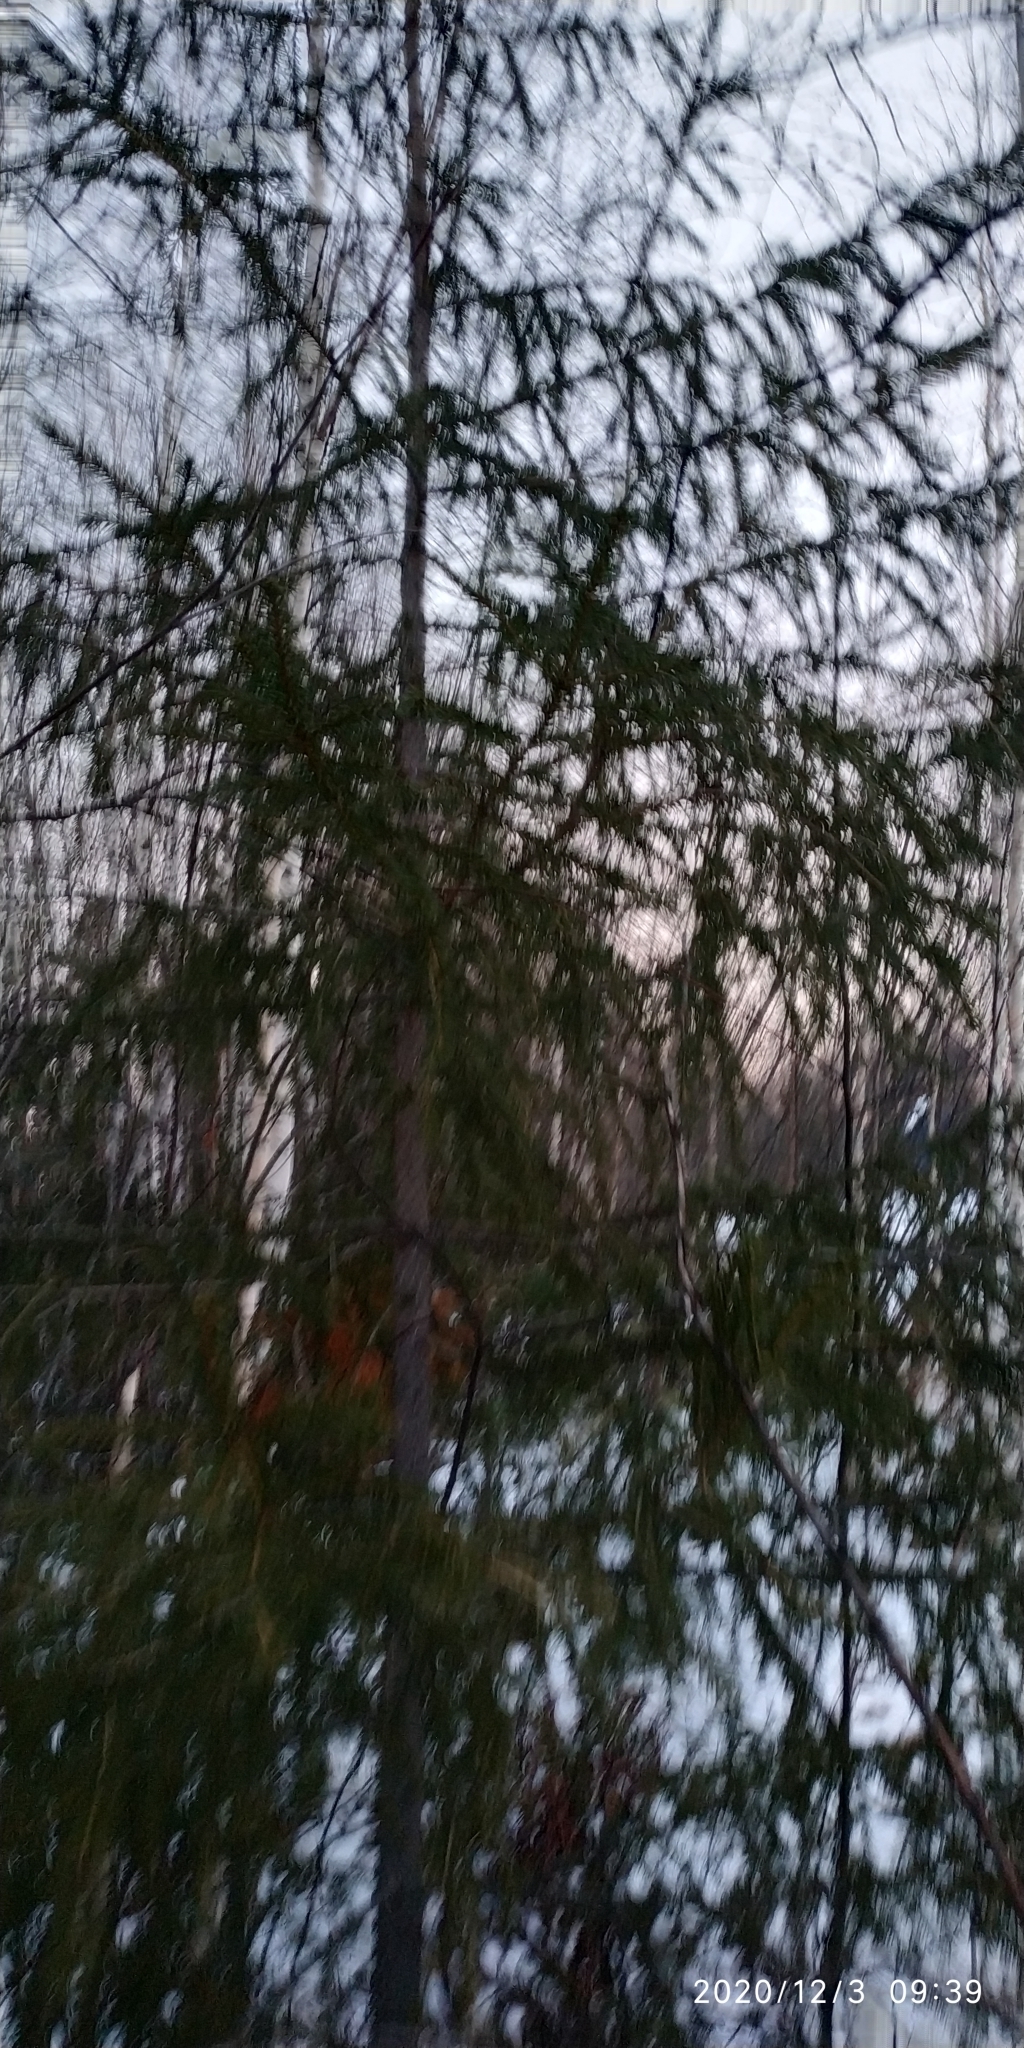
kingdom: Plantae
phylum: Tracheophyta
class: Pinopsida
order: Pinales
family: Pinaceae
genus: Picea
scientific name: Picea obovata
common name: Siberian spruce
